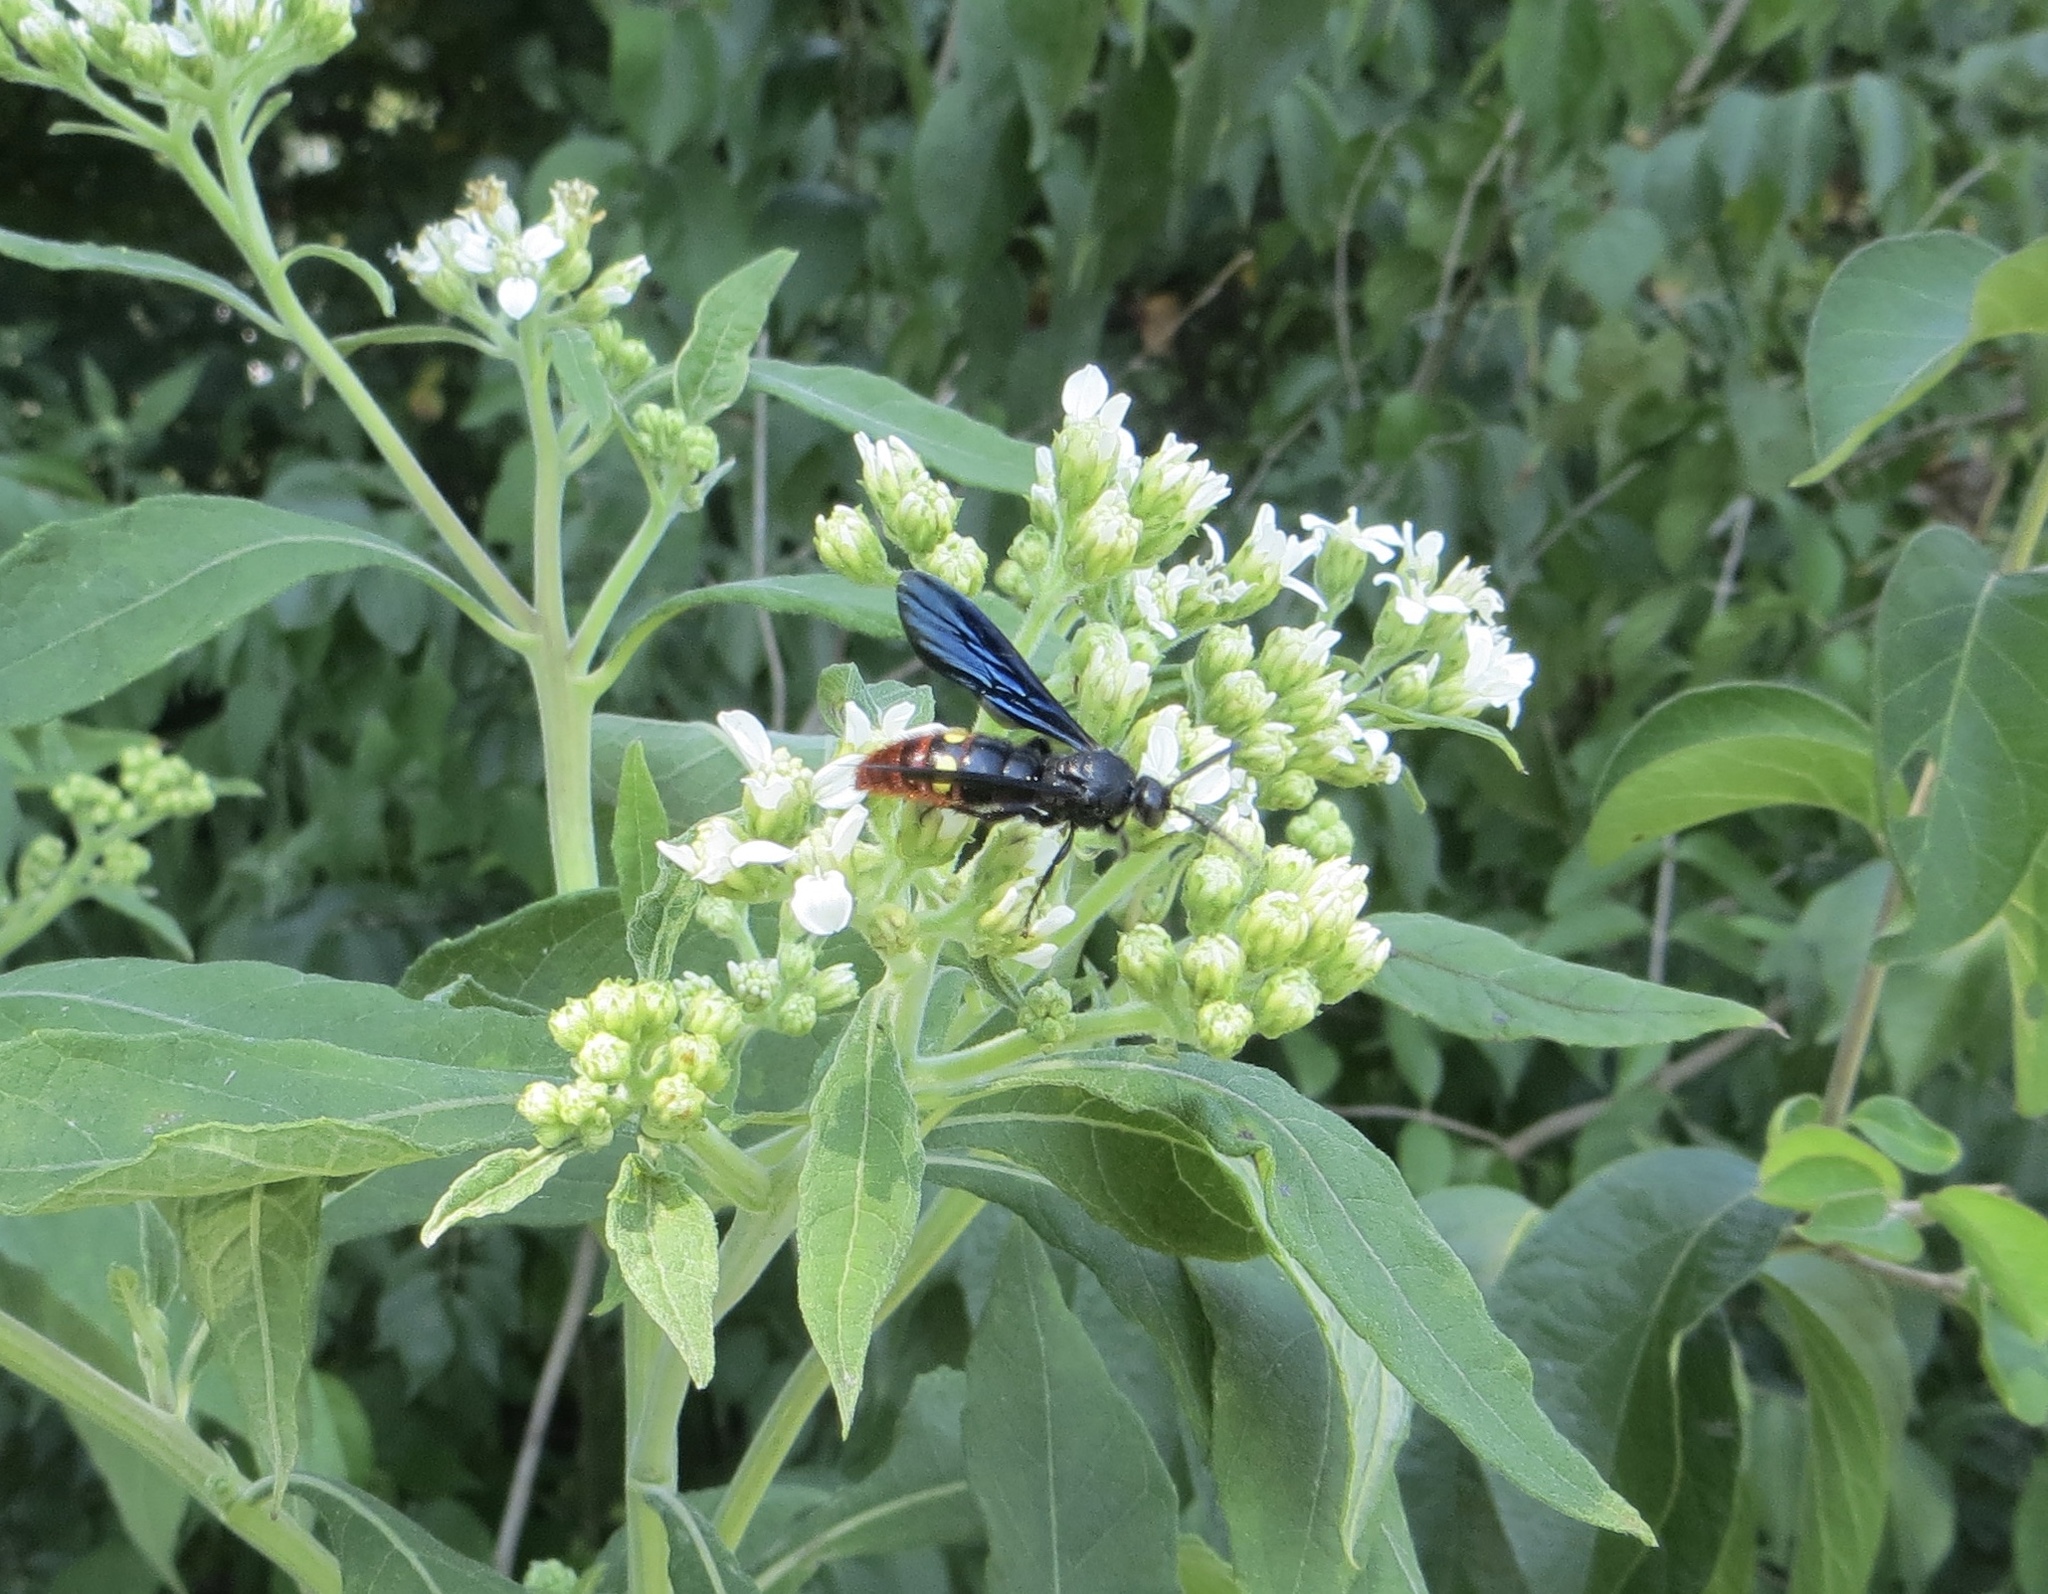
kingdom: Animalia
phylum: Arthropoda
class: Insecta
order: Hymenoptera
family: Scoliidae
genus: Scolia
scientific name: Scolia dubia
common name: Blue-winged scoliid wasp
